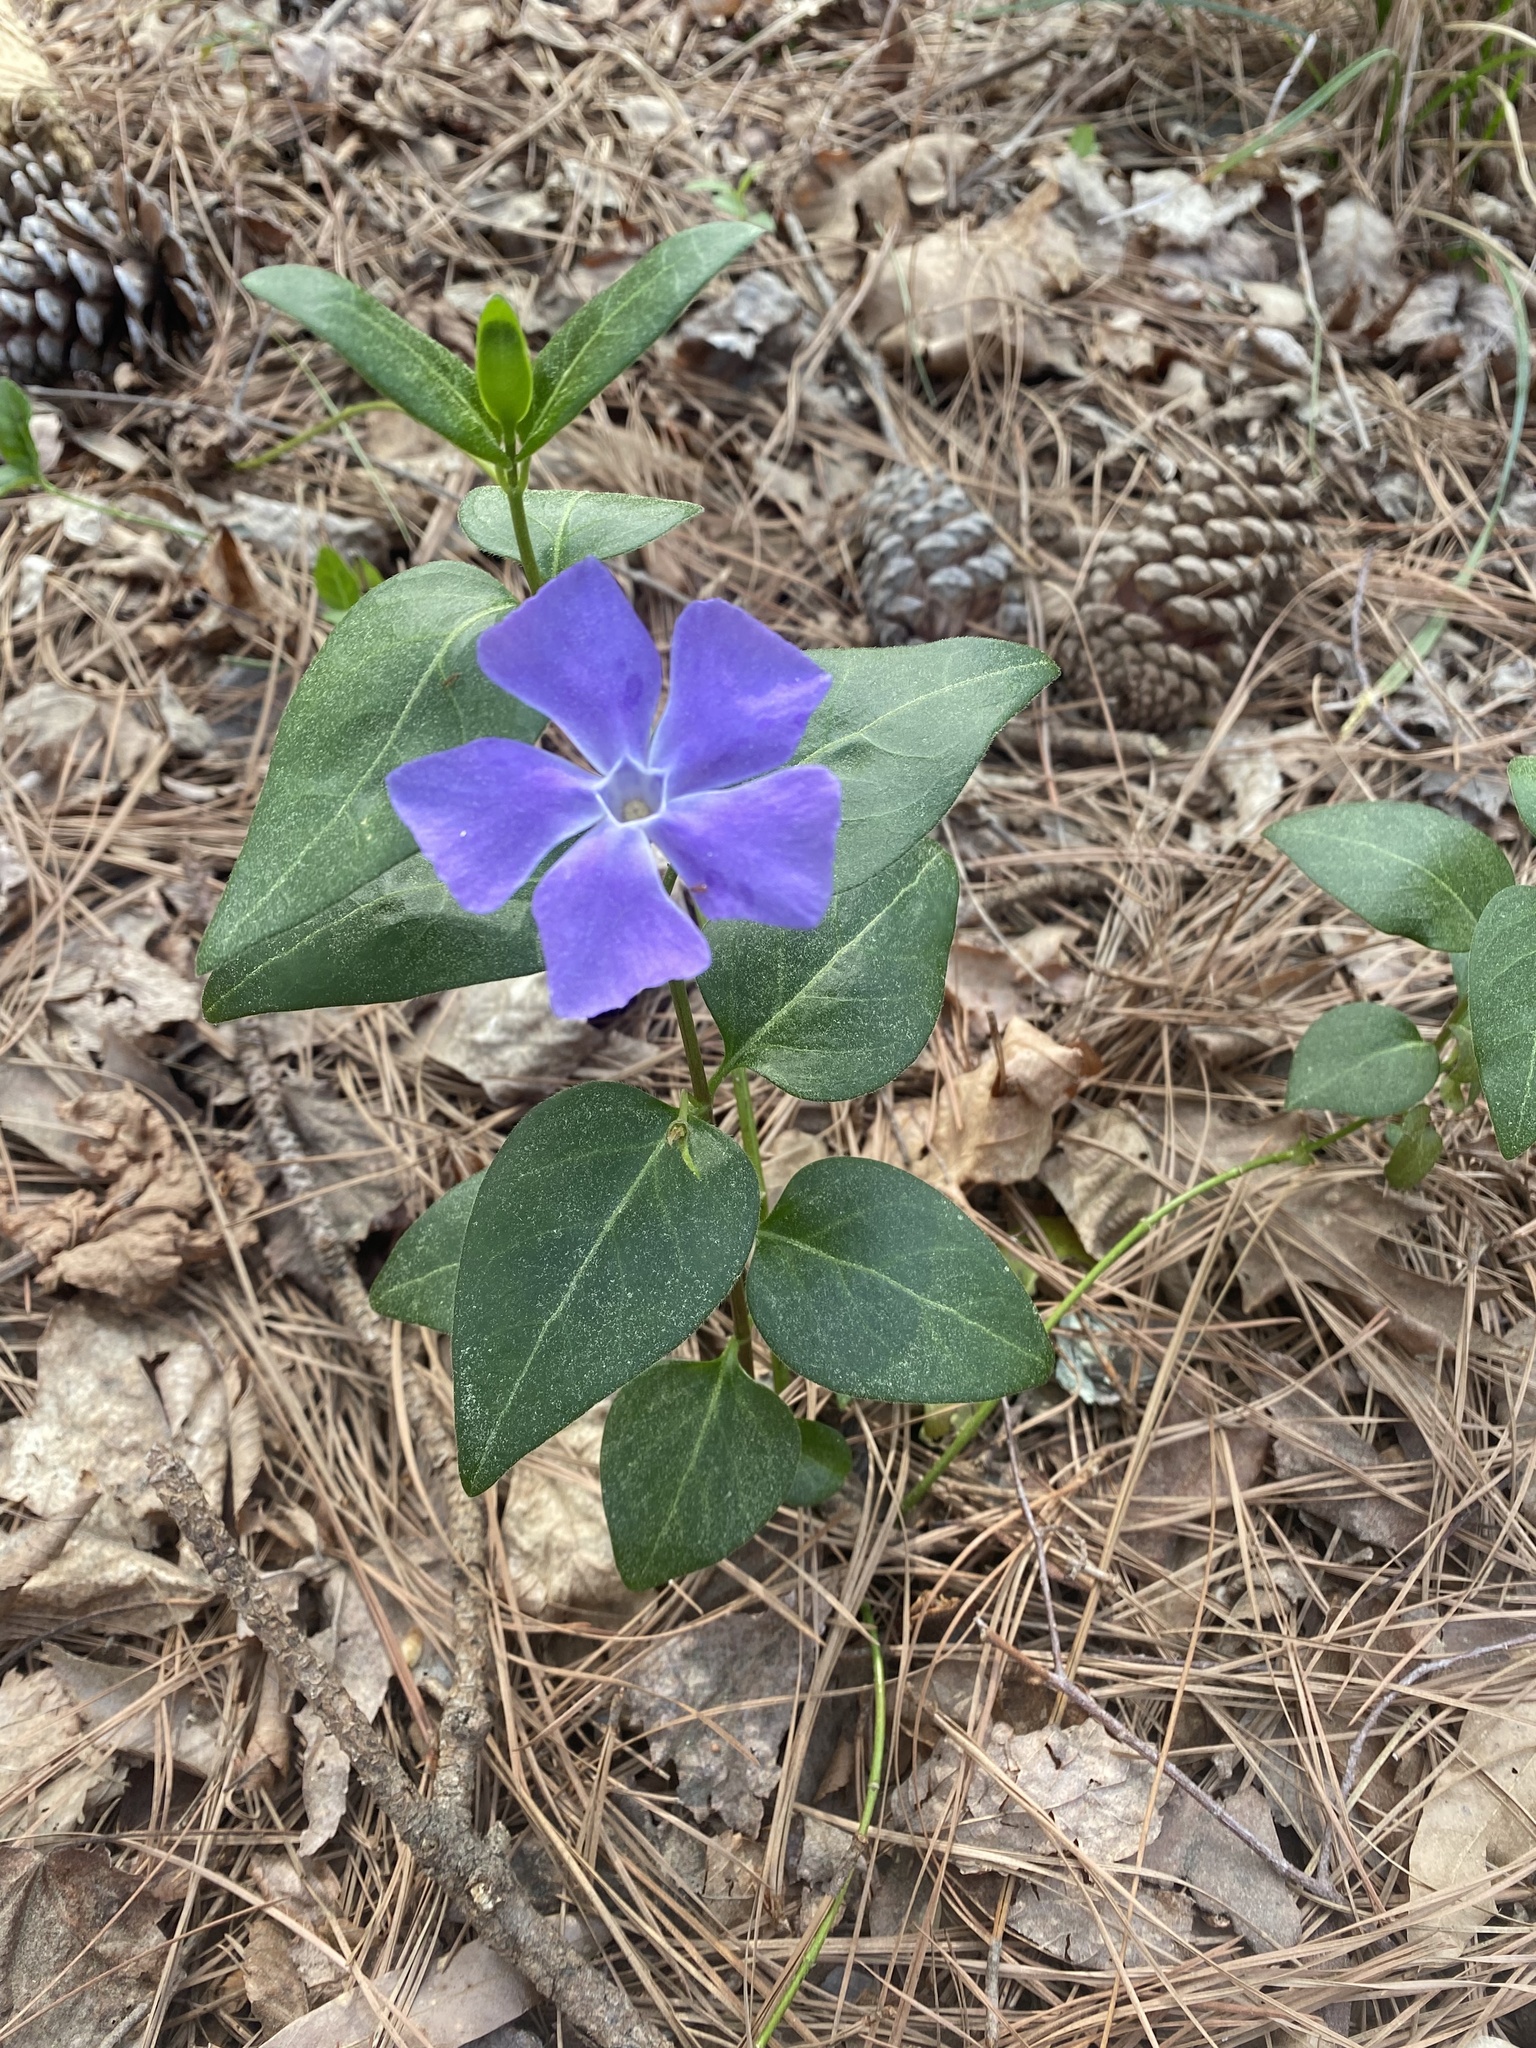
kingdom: Plantae
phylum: Tracheophyta
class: Magnoliopsida
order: Gentianales
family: Apocynaceae
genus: Vinca
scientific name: Vinca major
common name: Greater periwinkle
